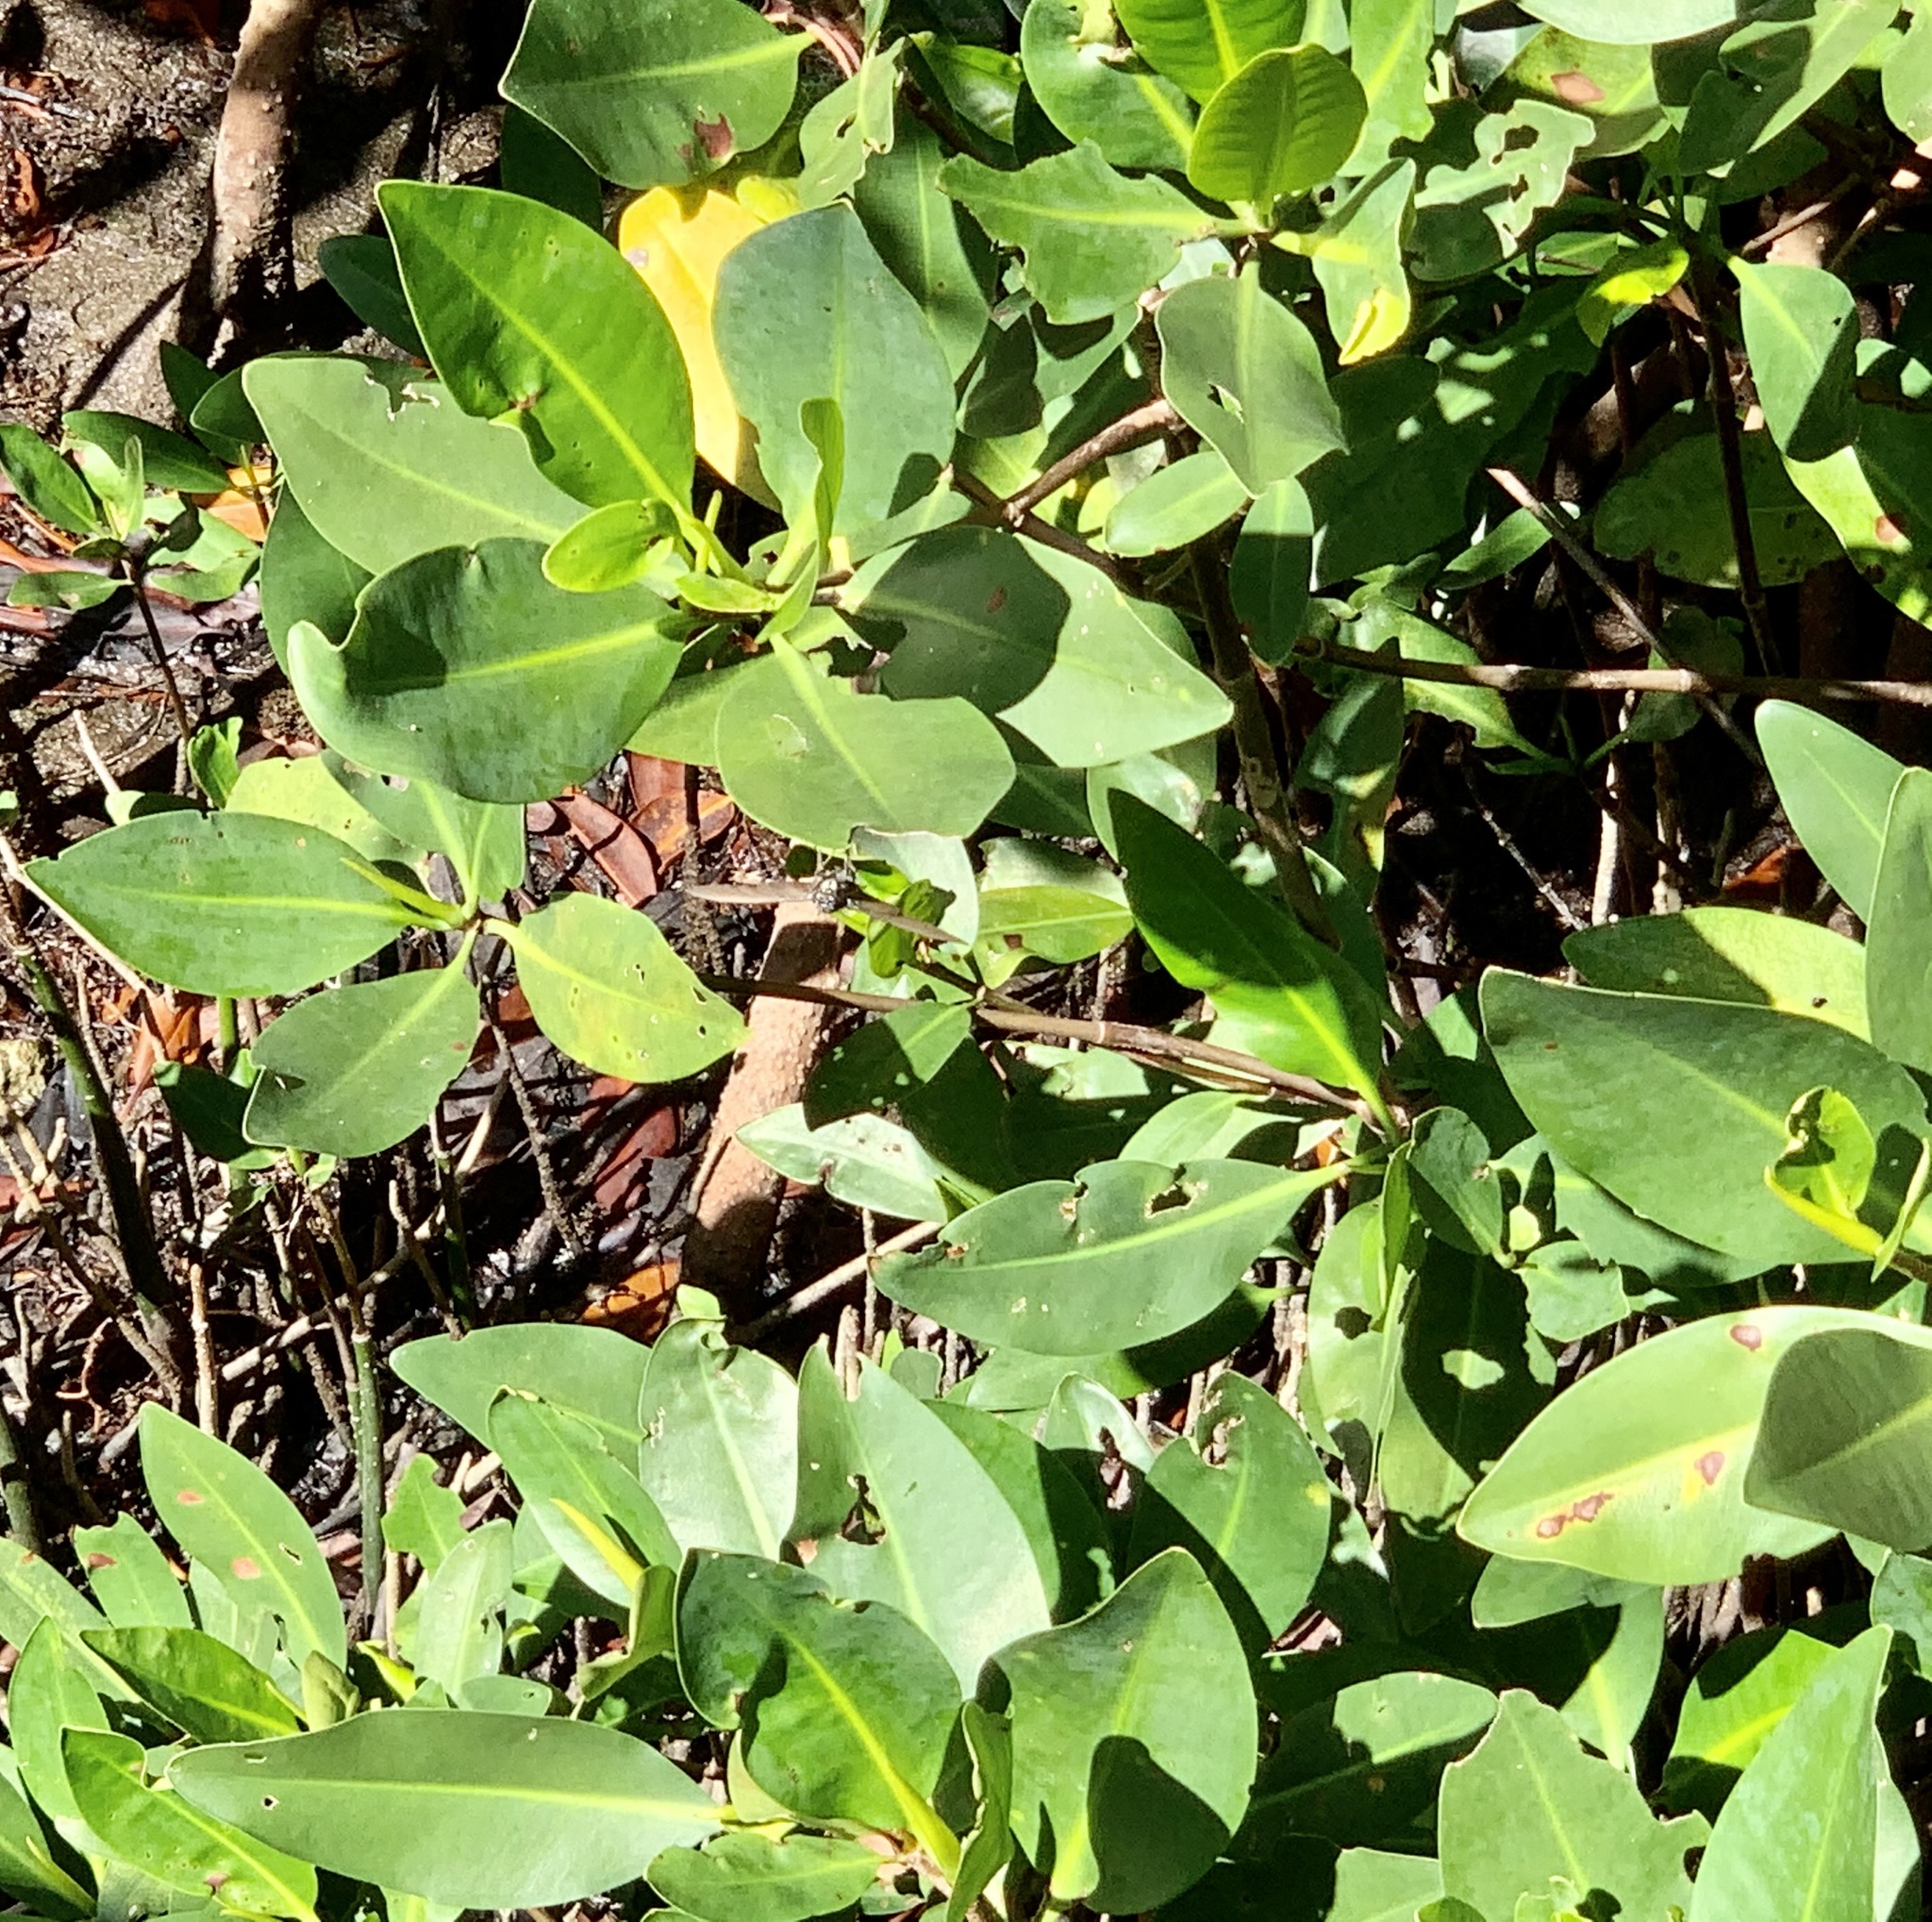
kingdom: Plantae
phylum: Tracheophyta
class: Magnoliopsida
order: Malpighiales
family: Rhizophoraceae
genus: Rhizophora
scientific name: Rhizophora mangle
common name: Red mangrove
